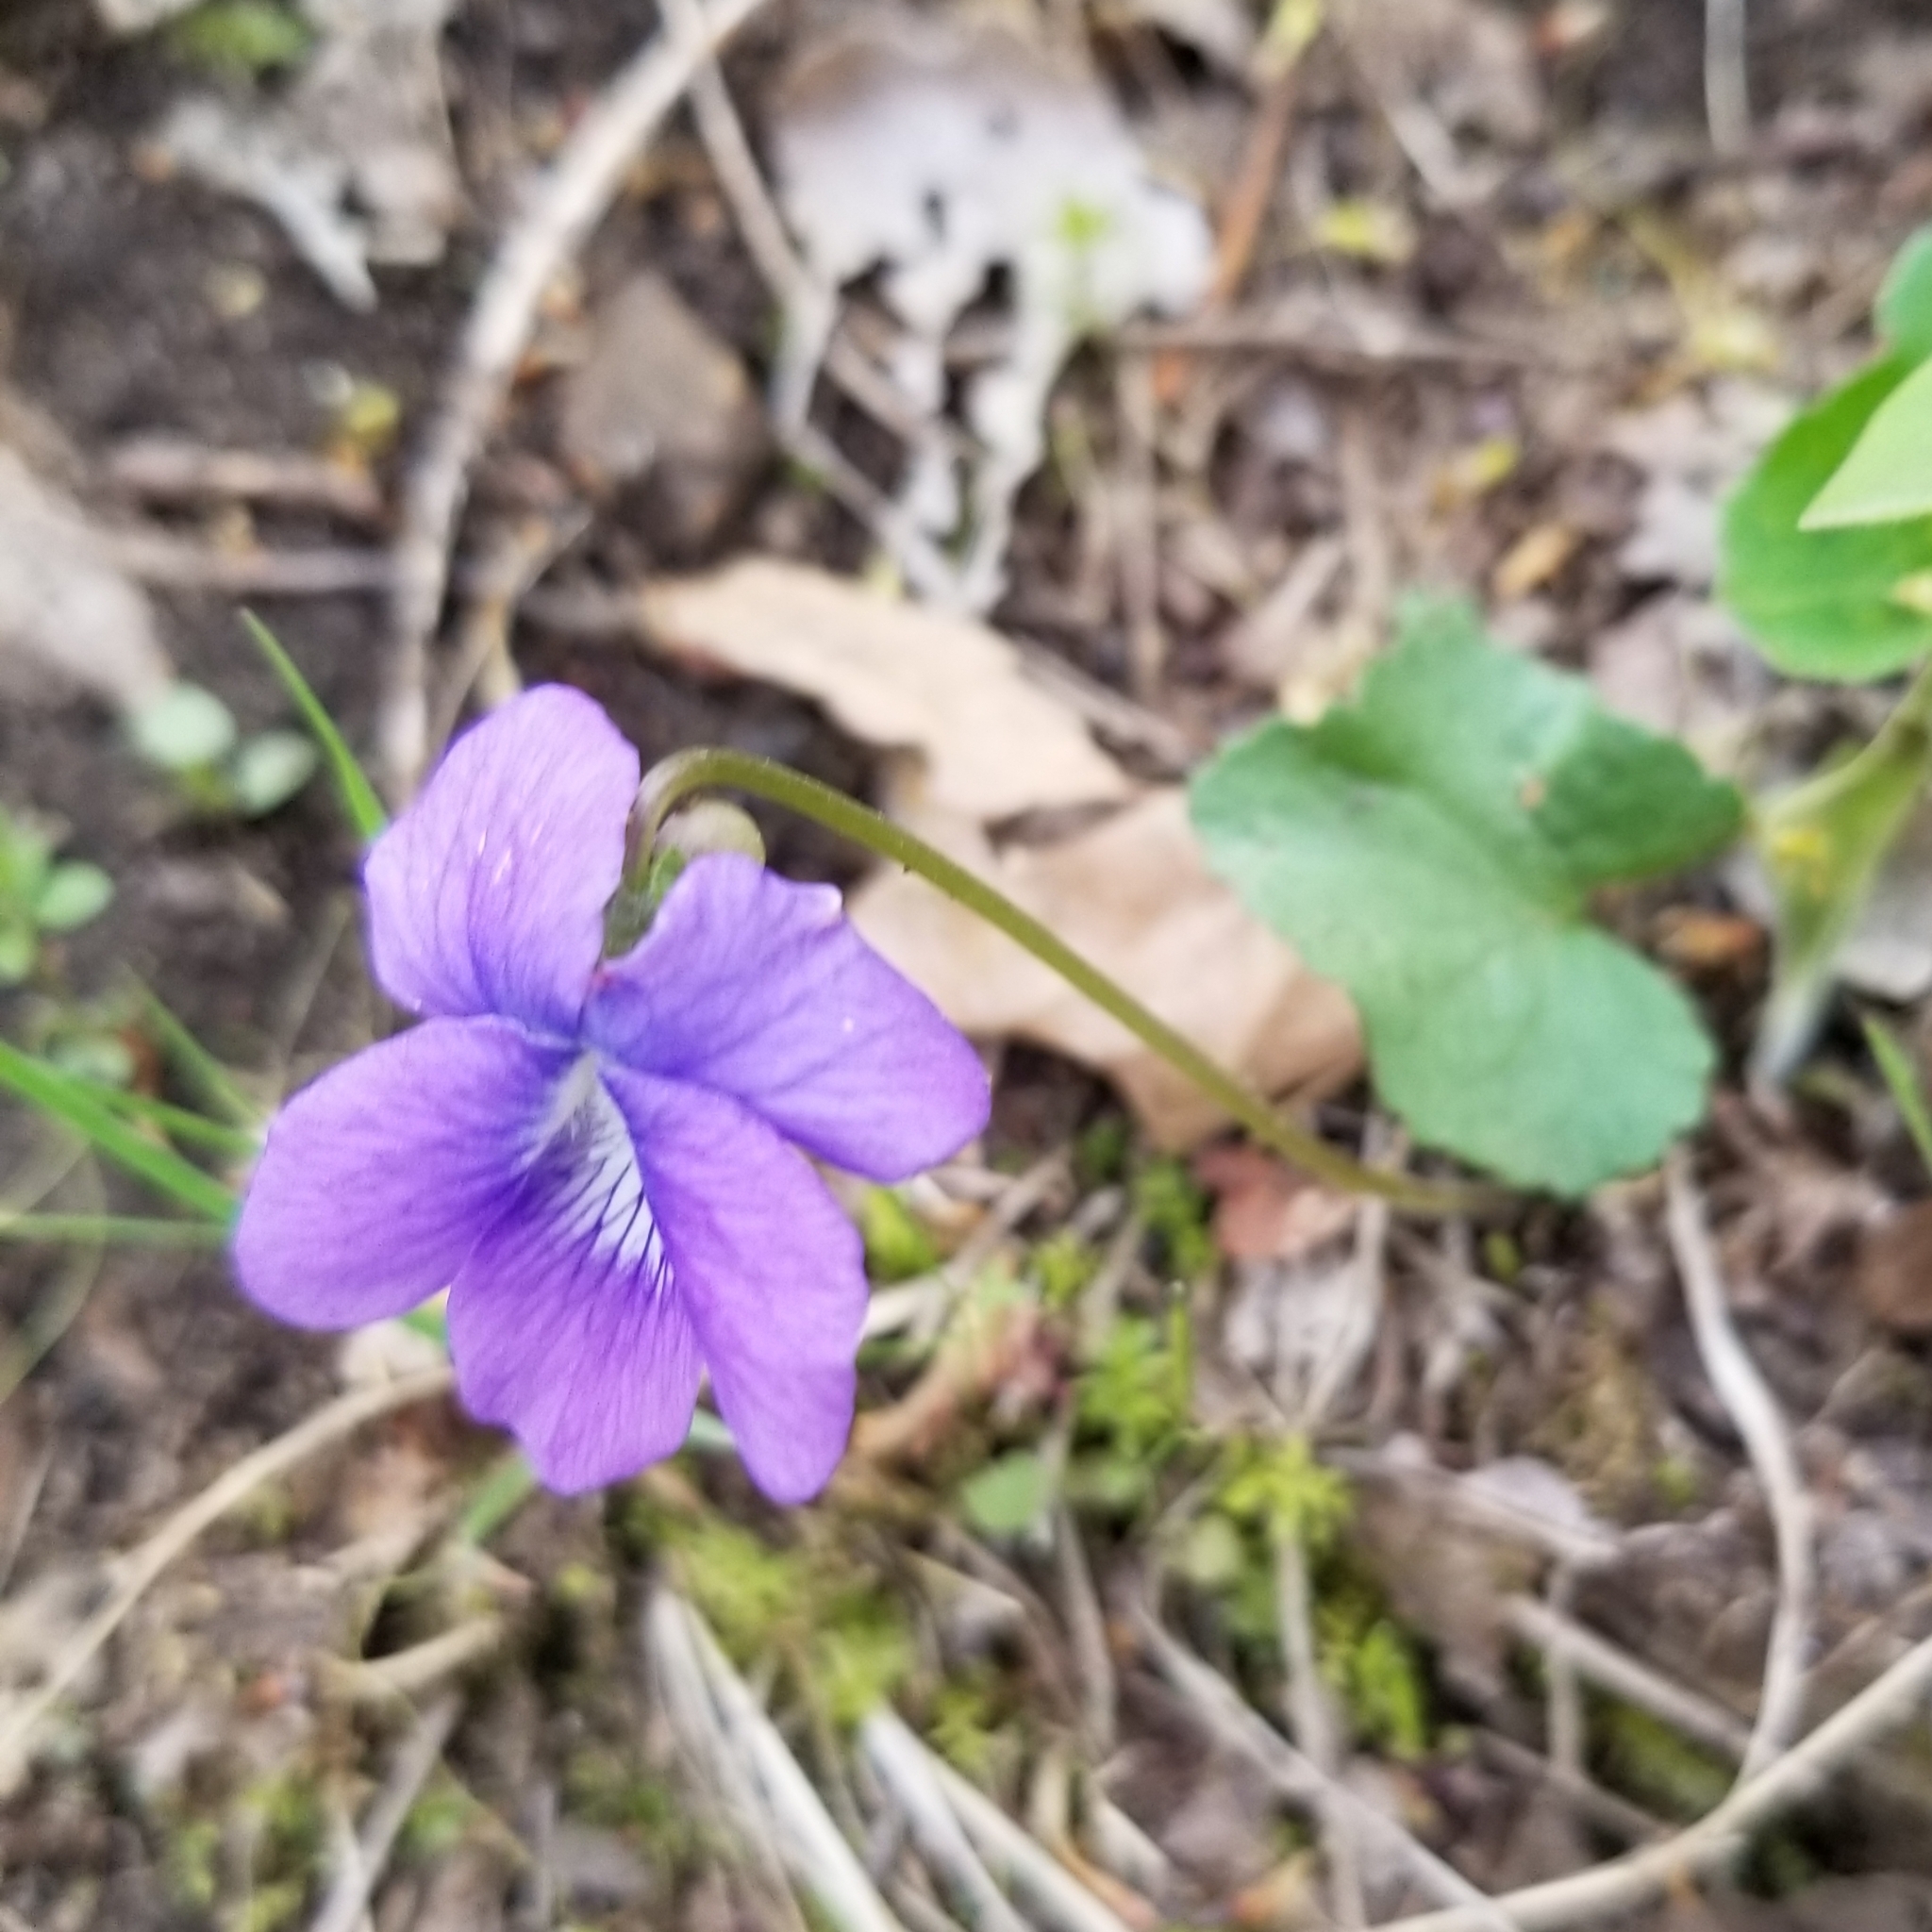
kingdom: Plantae
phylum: Tracheophyta
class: Magnoliopsida
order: Malpighiales
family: Violaceae
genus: Viola
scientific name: Viola sororia
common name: Dooryard violet
